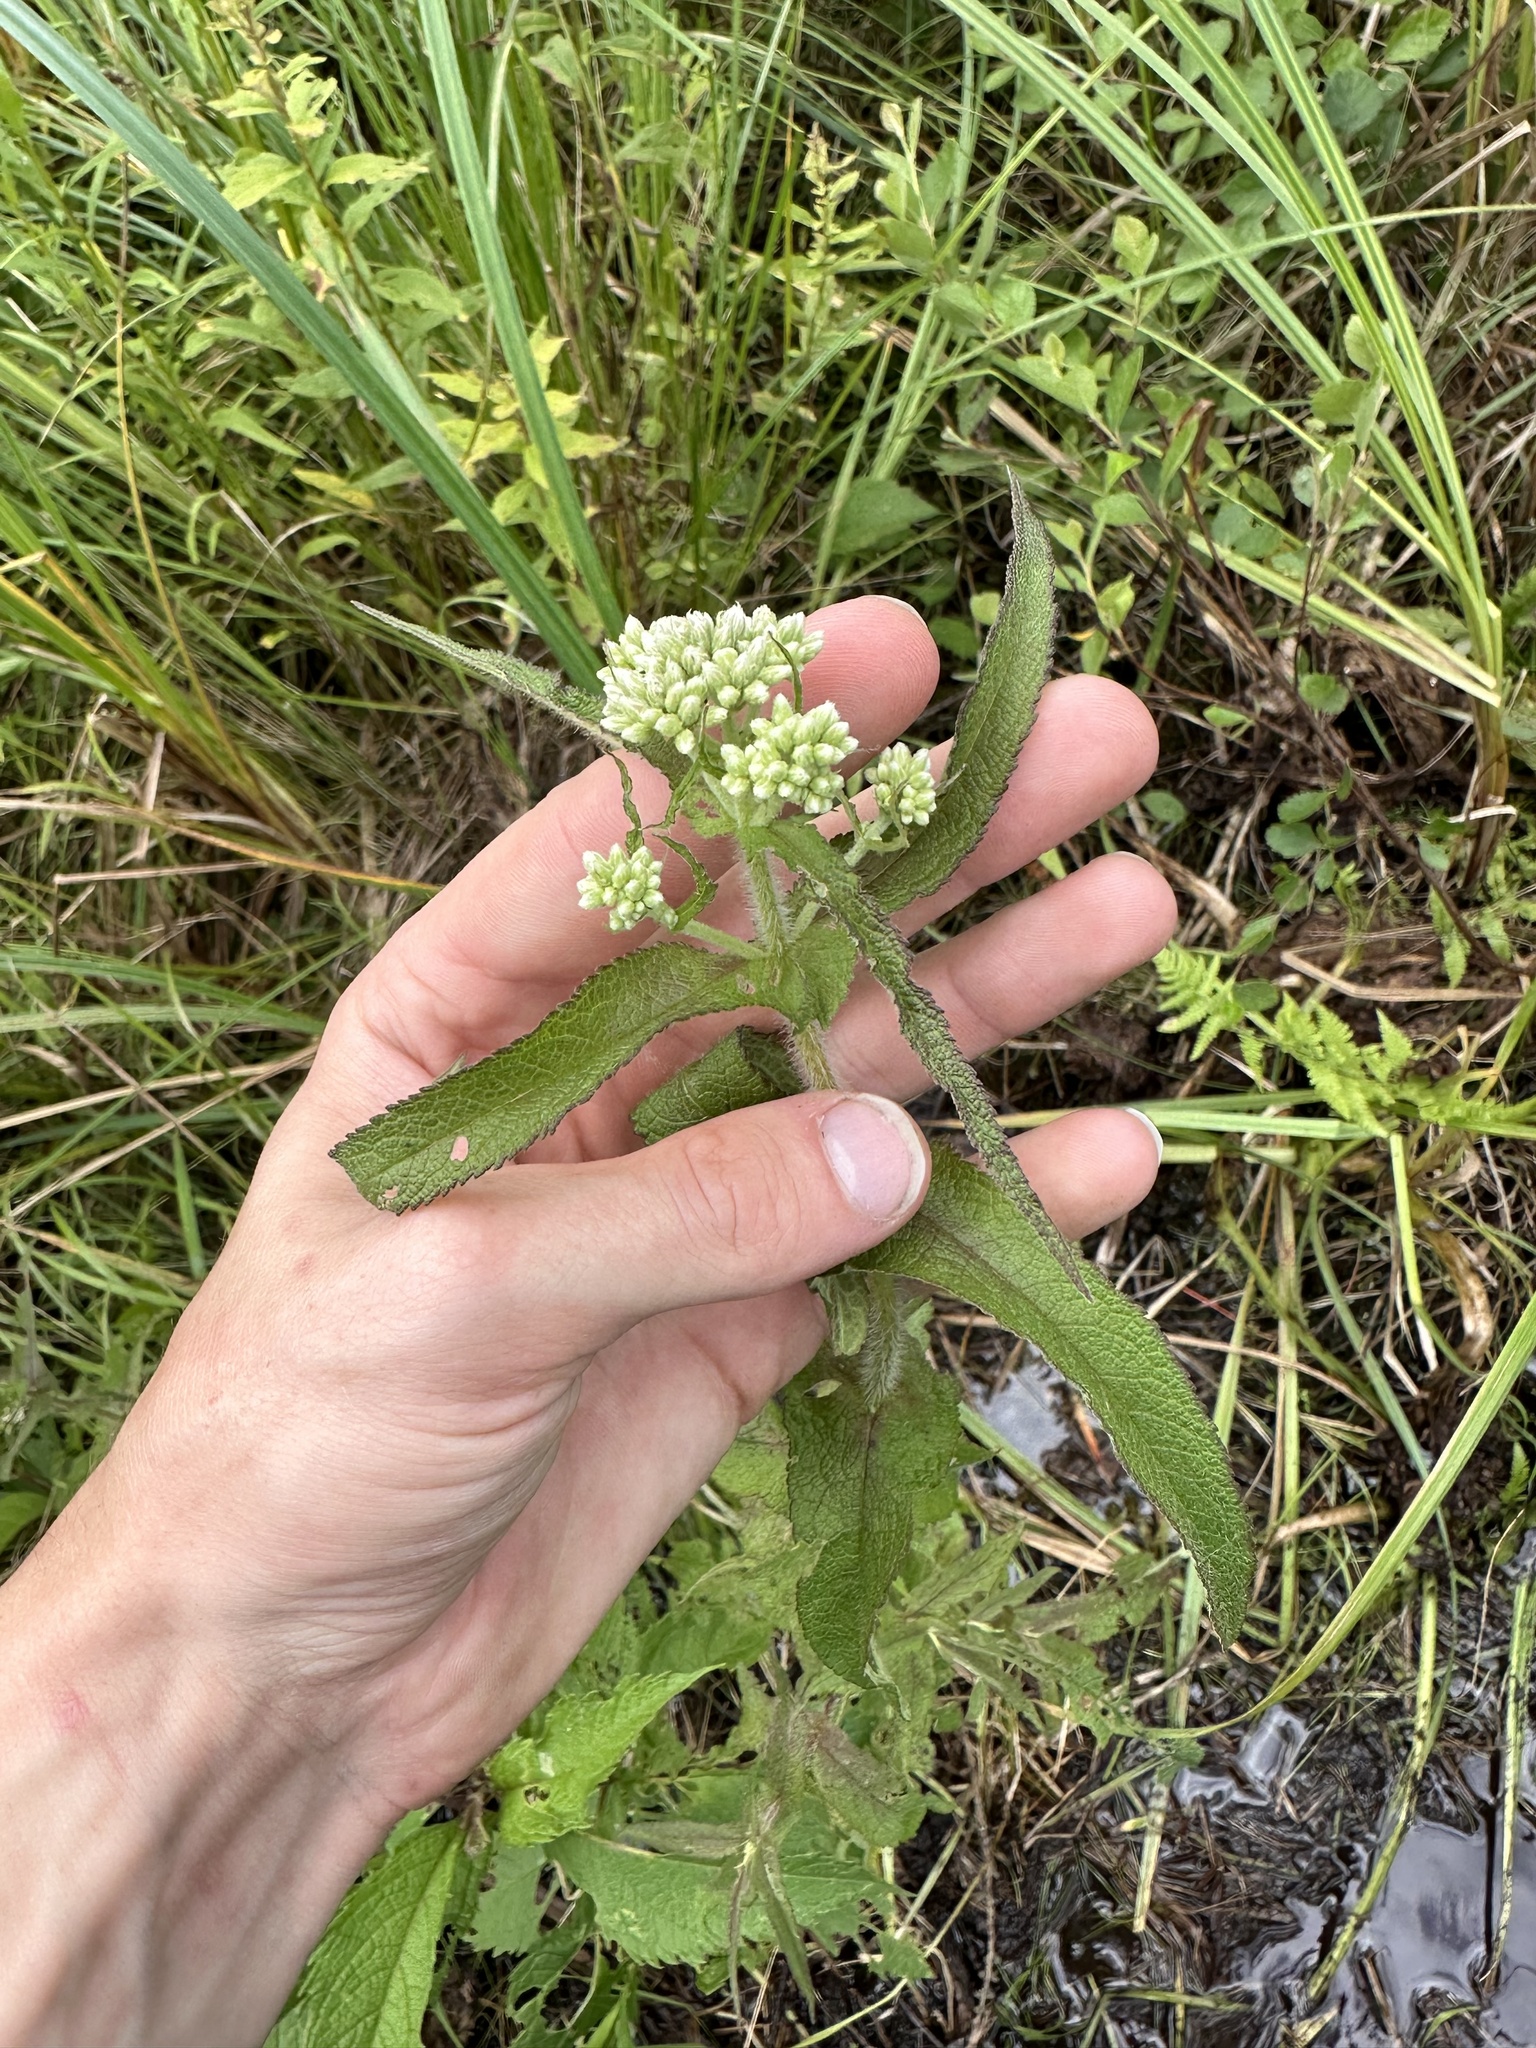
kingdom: Plantae
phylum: Tracheophyta
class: Magnoliopsida
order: Asterales
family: Asteraceae
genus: Eupatorium
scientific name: Eupatorium perfoliatum
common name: Boneset
